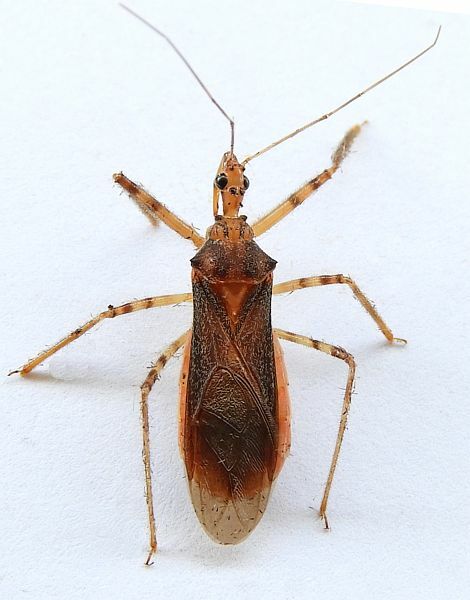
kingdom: Animalia
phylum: Arthropoda
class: Insecta
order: Hemiptera
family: Reduviidae
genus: Castolus
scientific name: Castolus ferox
